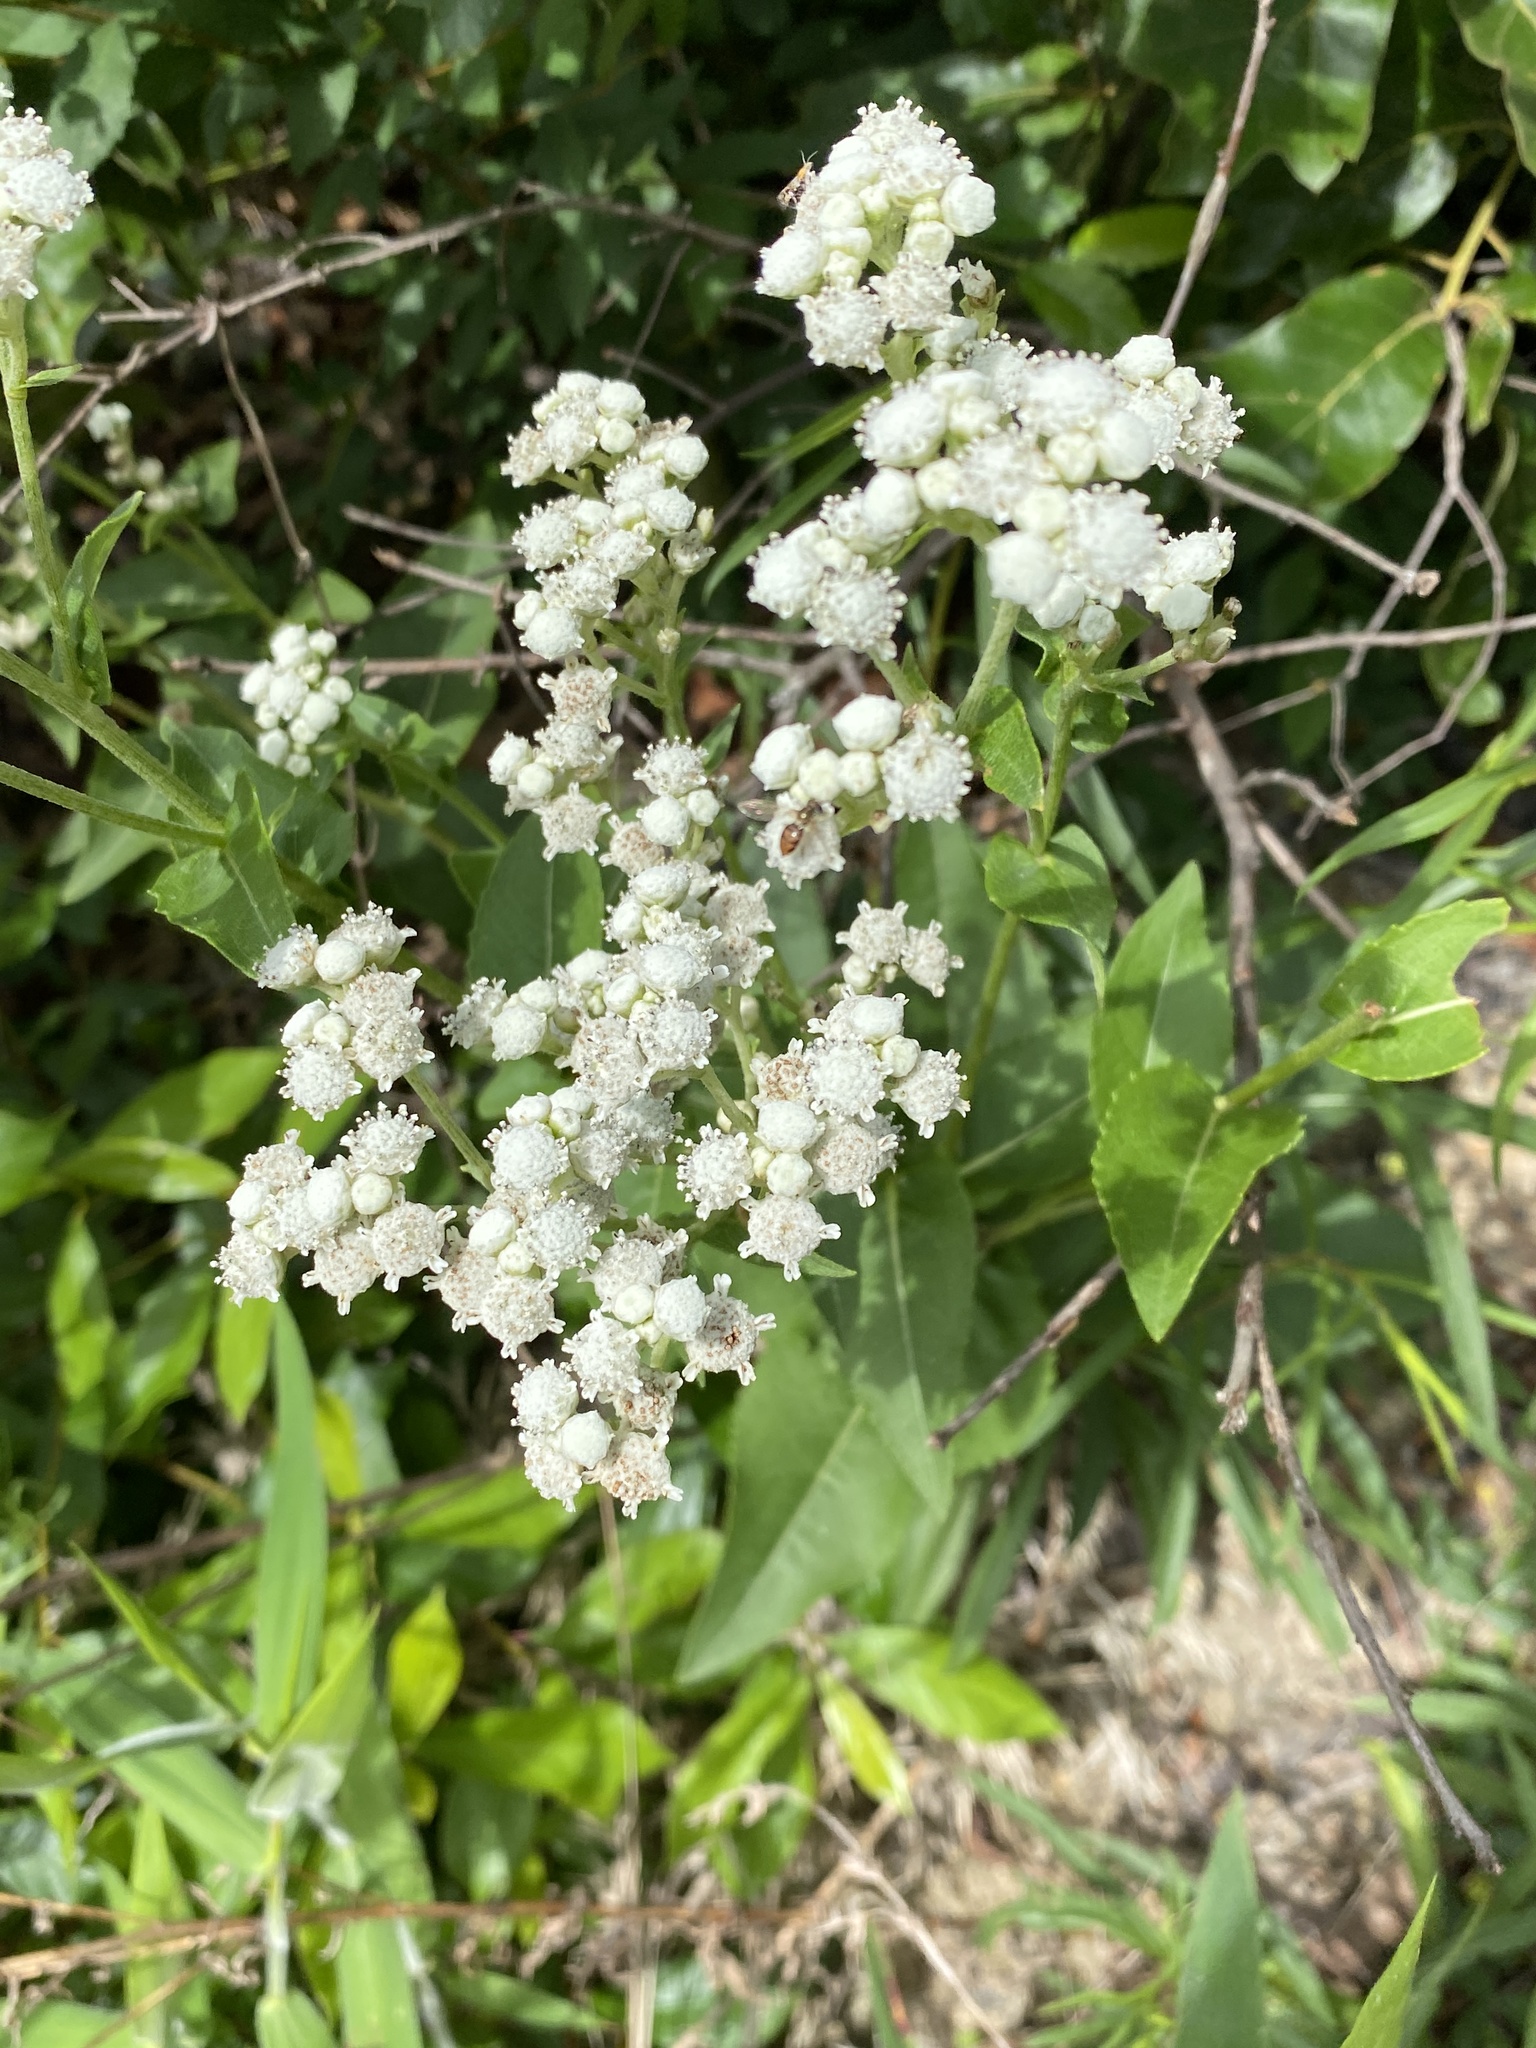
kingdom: Plantae
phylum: Tracheophyta
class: Magnoliopsida
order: Asterales
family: Asteraceae
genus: Parthenium
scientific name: Parthenium integrifolium
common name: American feverfew
